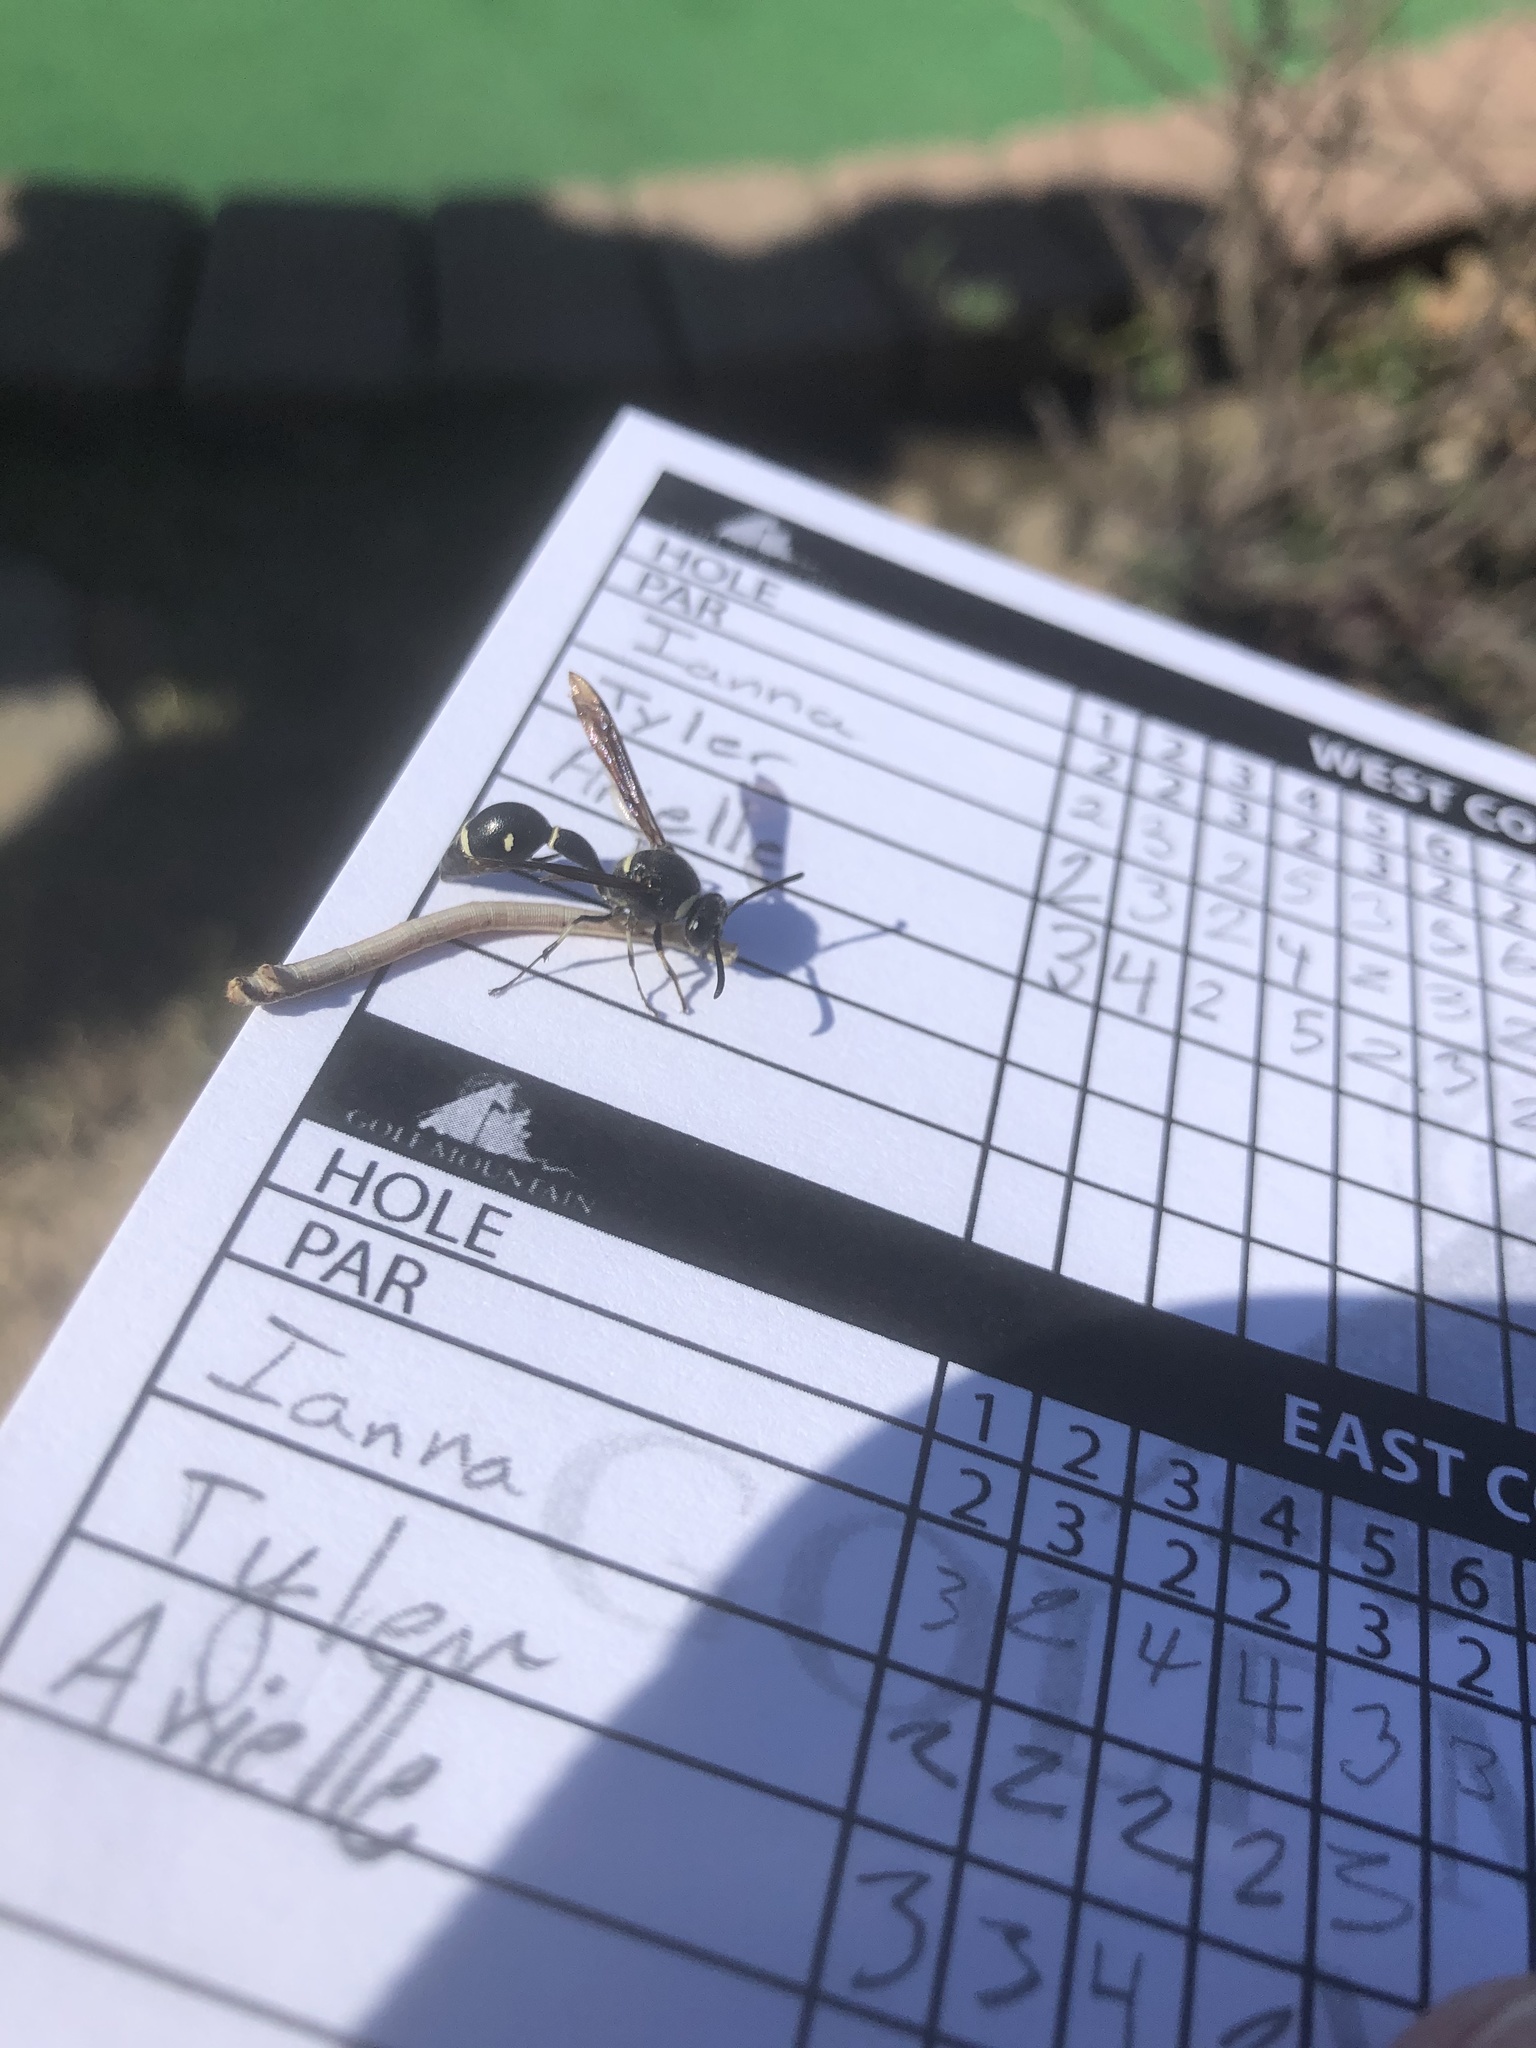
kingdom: Animalia
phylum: Arthropoda
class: Insecta
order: Hymenoptera
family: Vespidae
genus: Eumenes
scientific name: Eumenes fraternus
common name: Fraternal potter wasp
